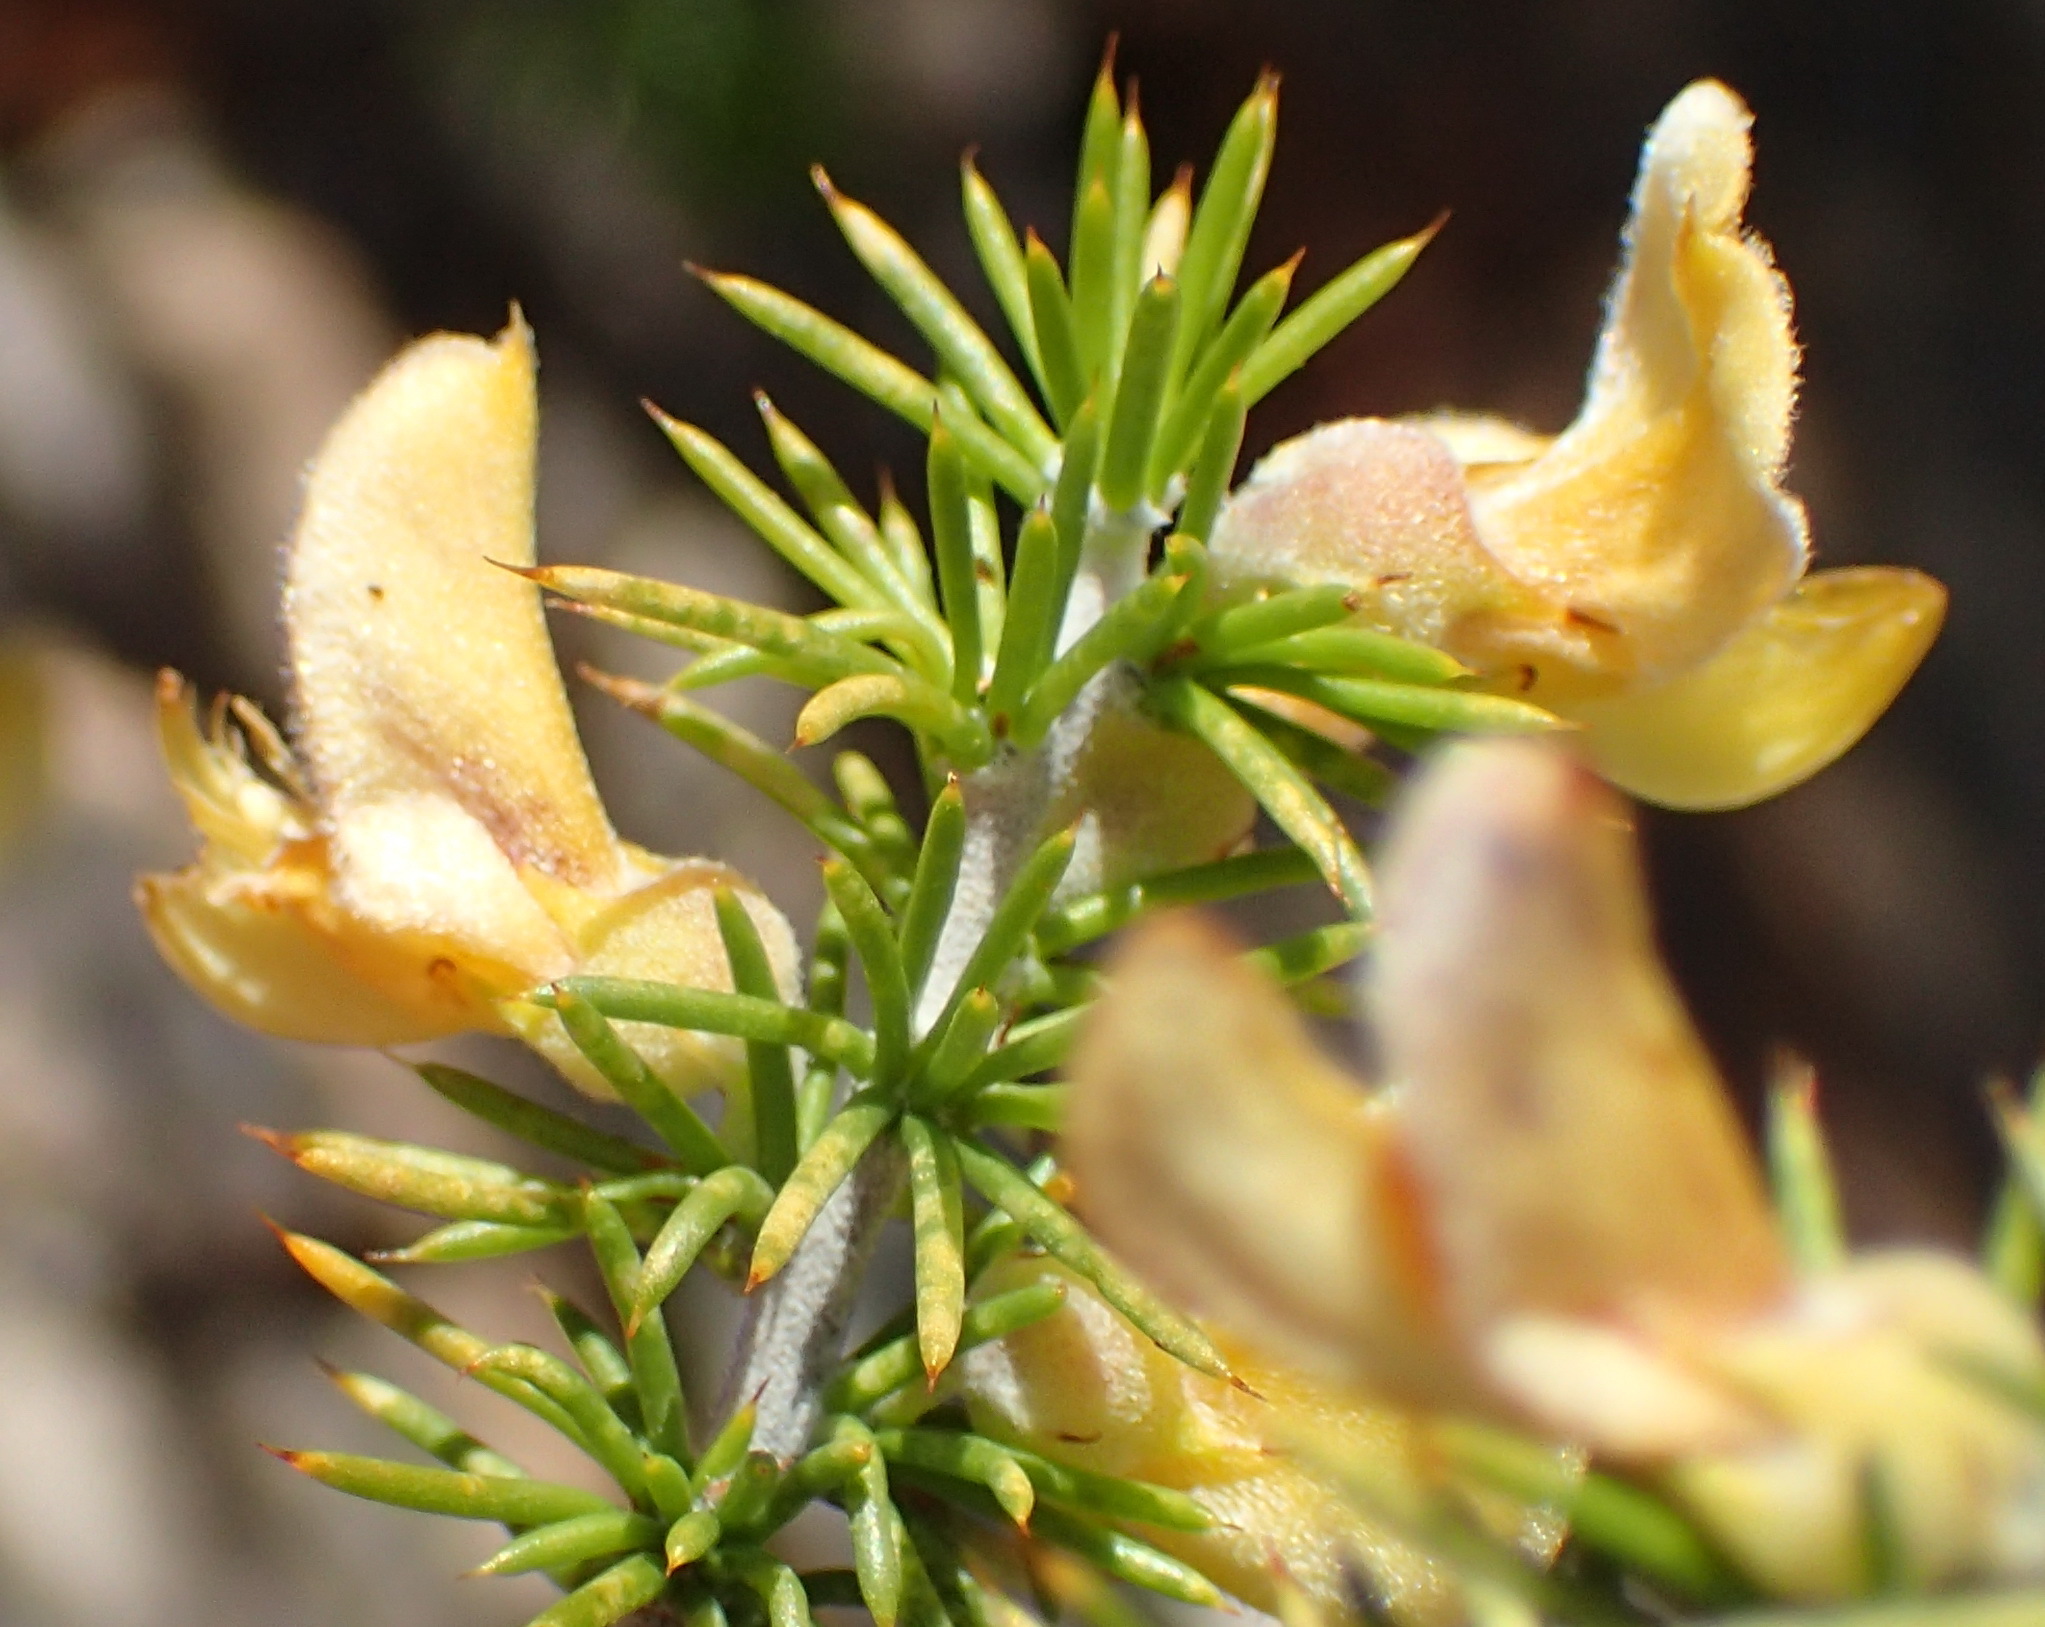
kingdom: Plantae
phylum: Tracheophyta
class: Magnoliopsida
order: Fabales
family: Fabaceae
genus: Aspalathus
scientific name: Aspalathus hirta
